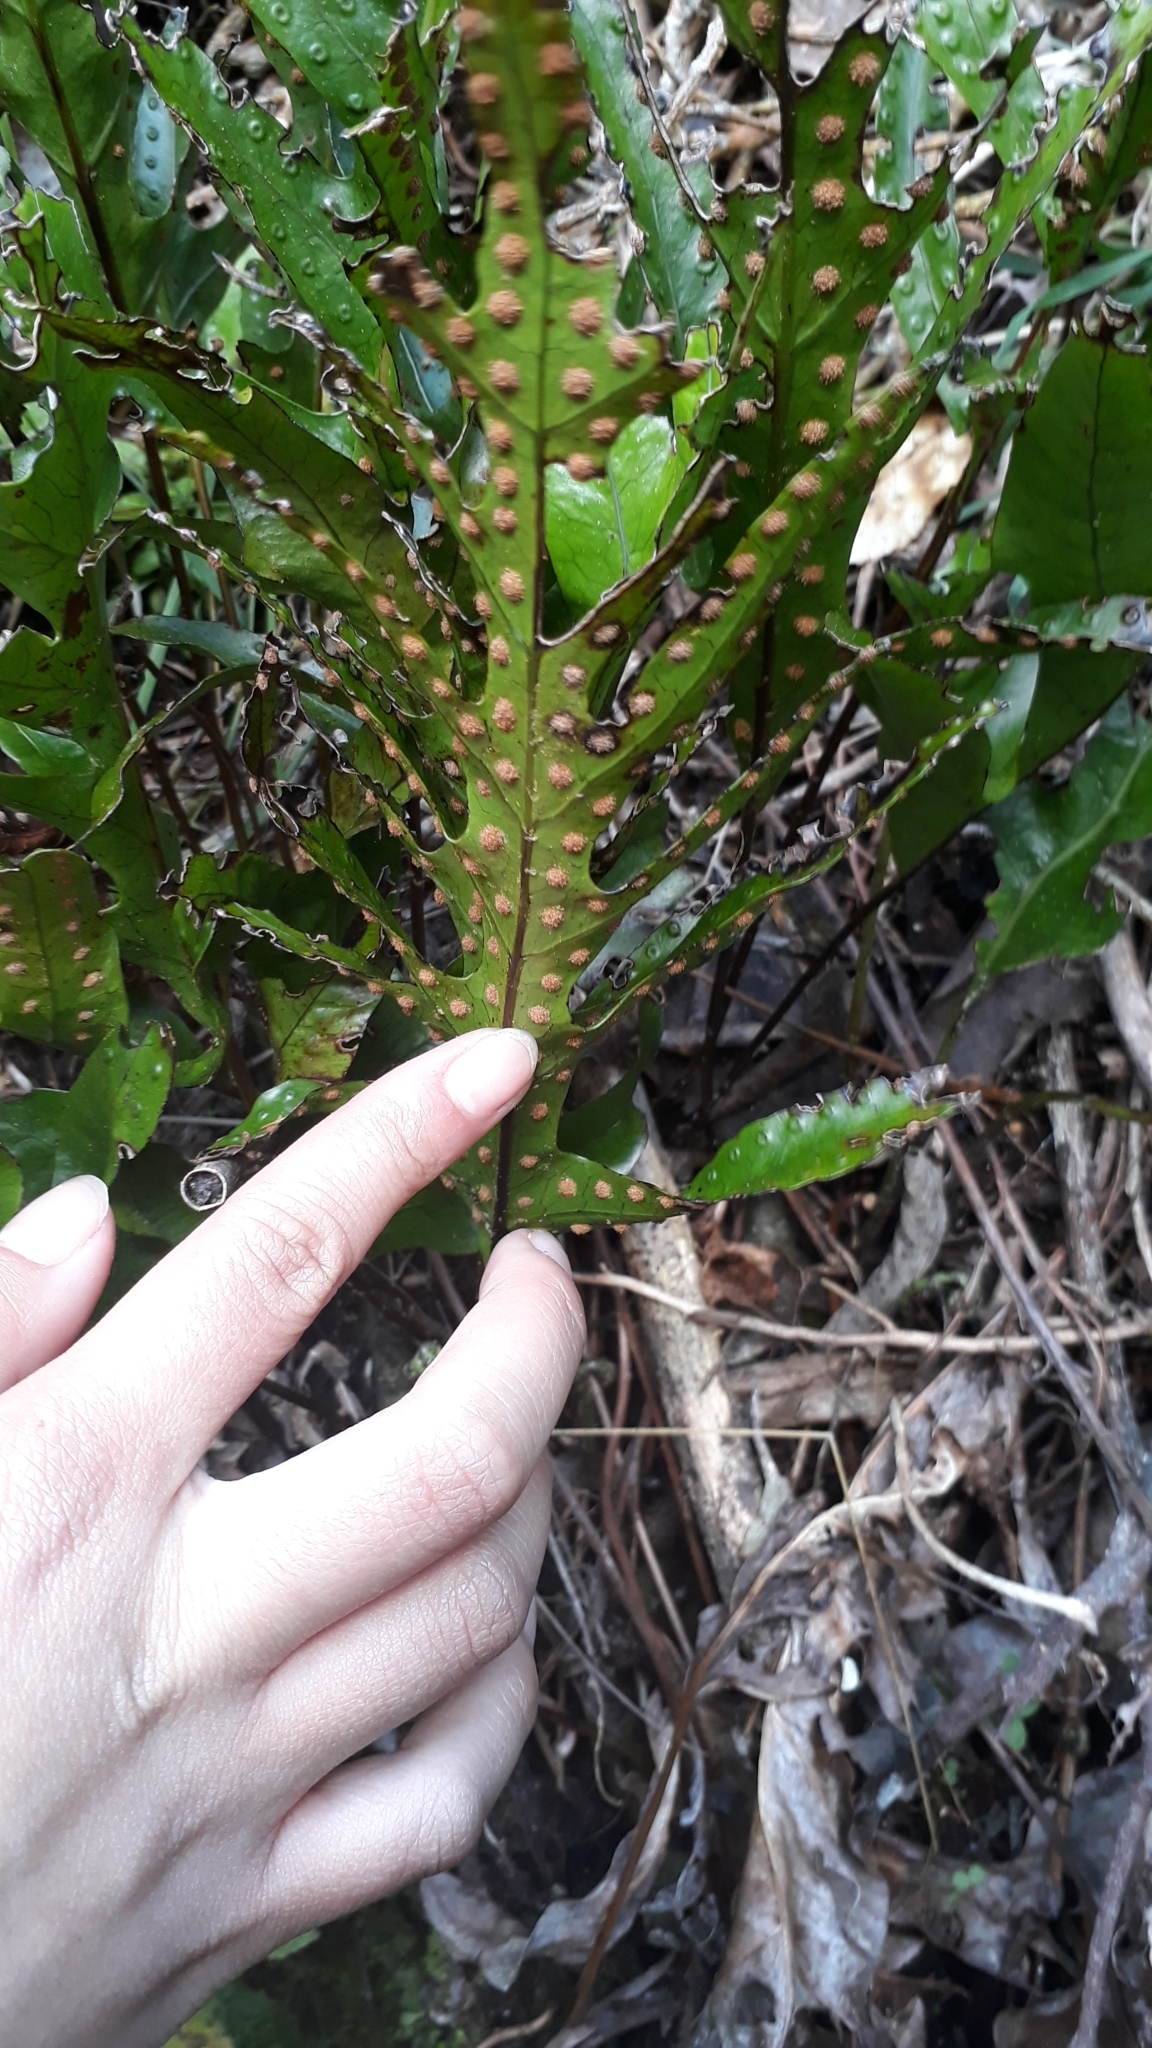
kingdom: Plantae
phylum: Tracheophyta
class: Polypodiopsida
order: Polypodiales
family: Polypodiaceae
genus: Lecanopteris
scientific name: Lecanopteris pustulata
